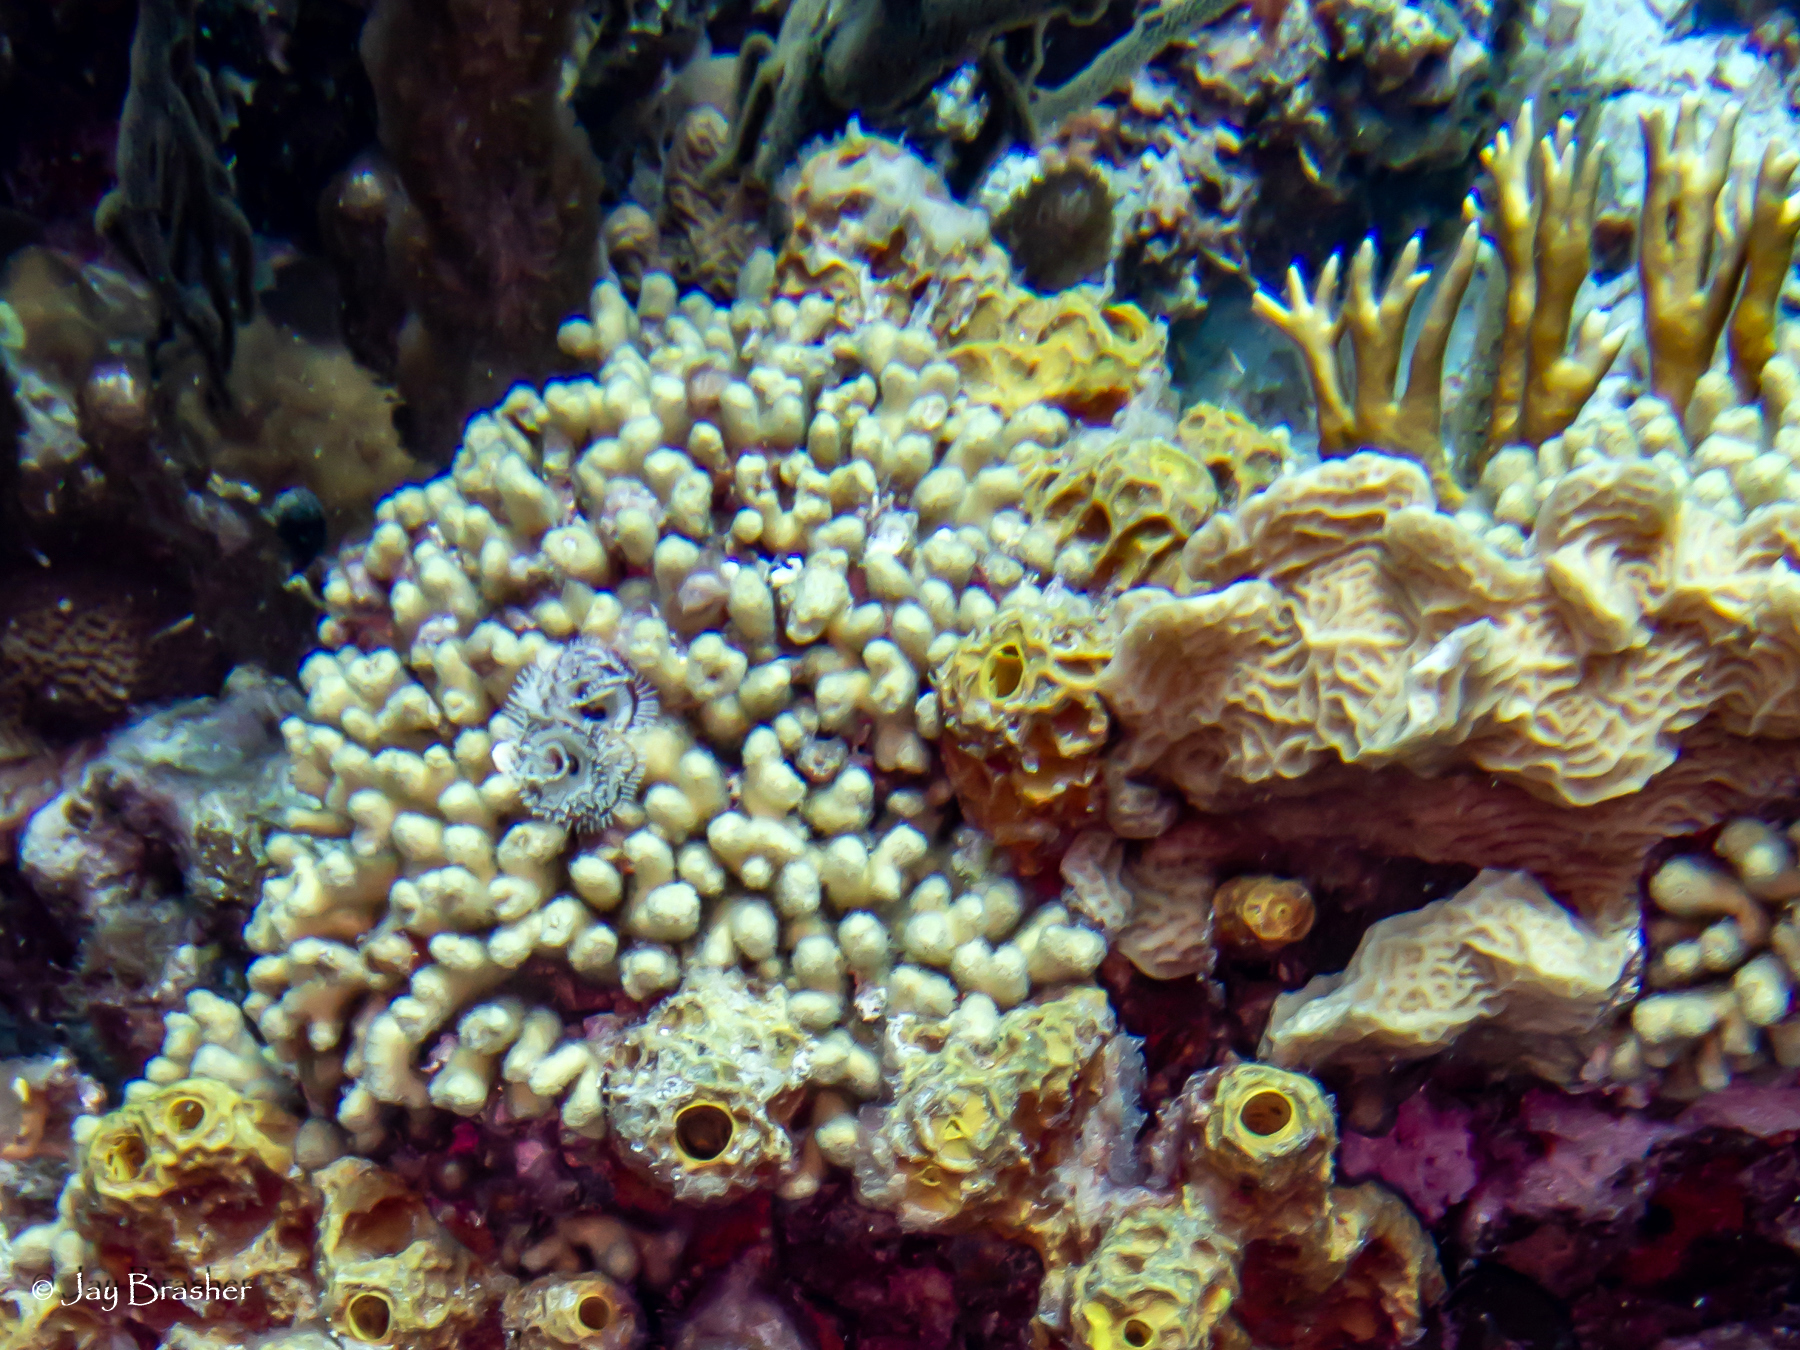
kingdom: Animalia
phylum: Cnidaria
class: Anthozoa
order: Scleractinia
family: Agariciidae
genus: Agaricia
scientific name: Agaricia agaricites
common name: Lettuce coral
